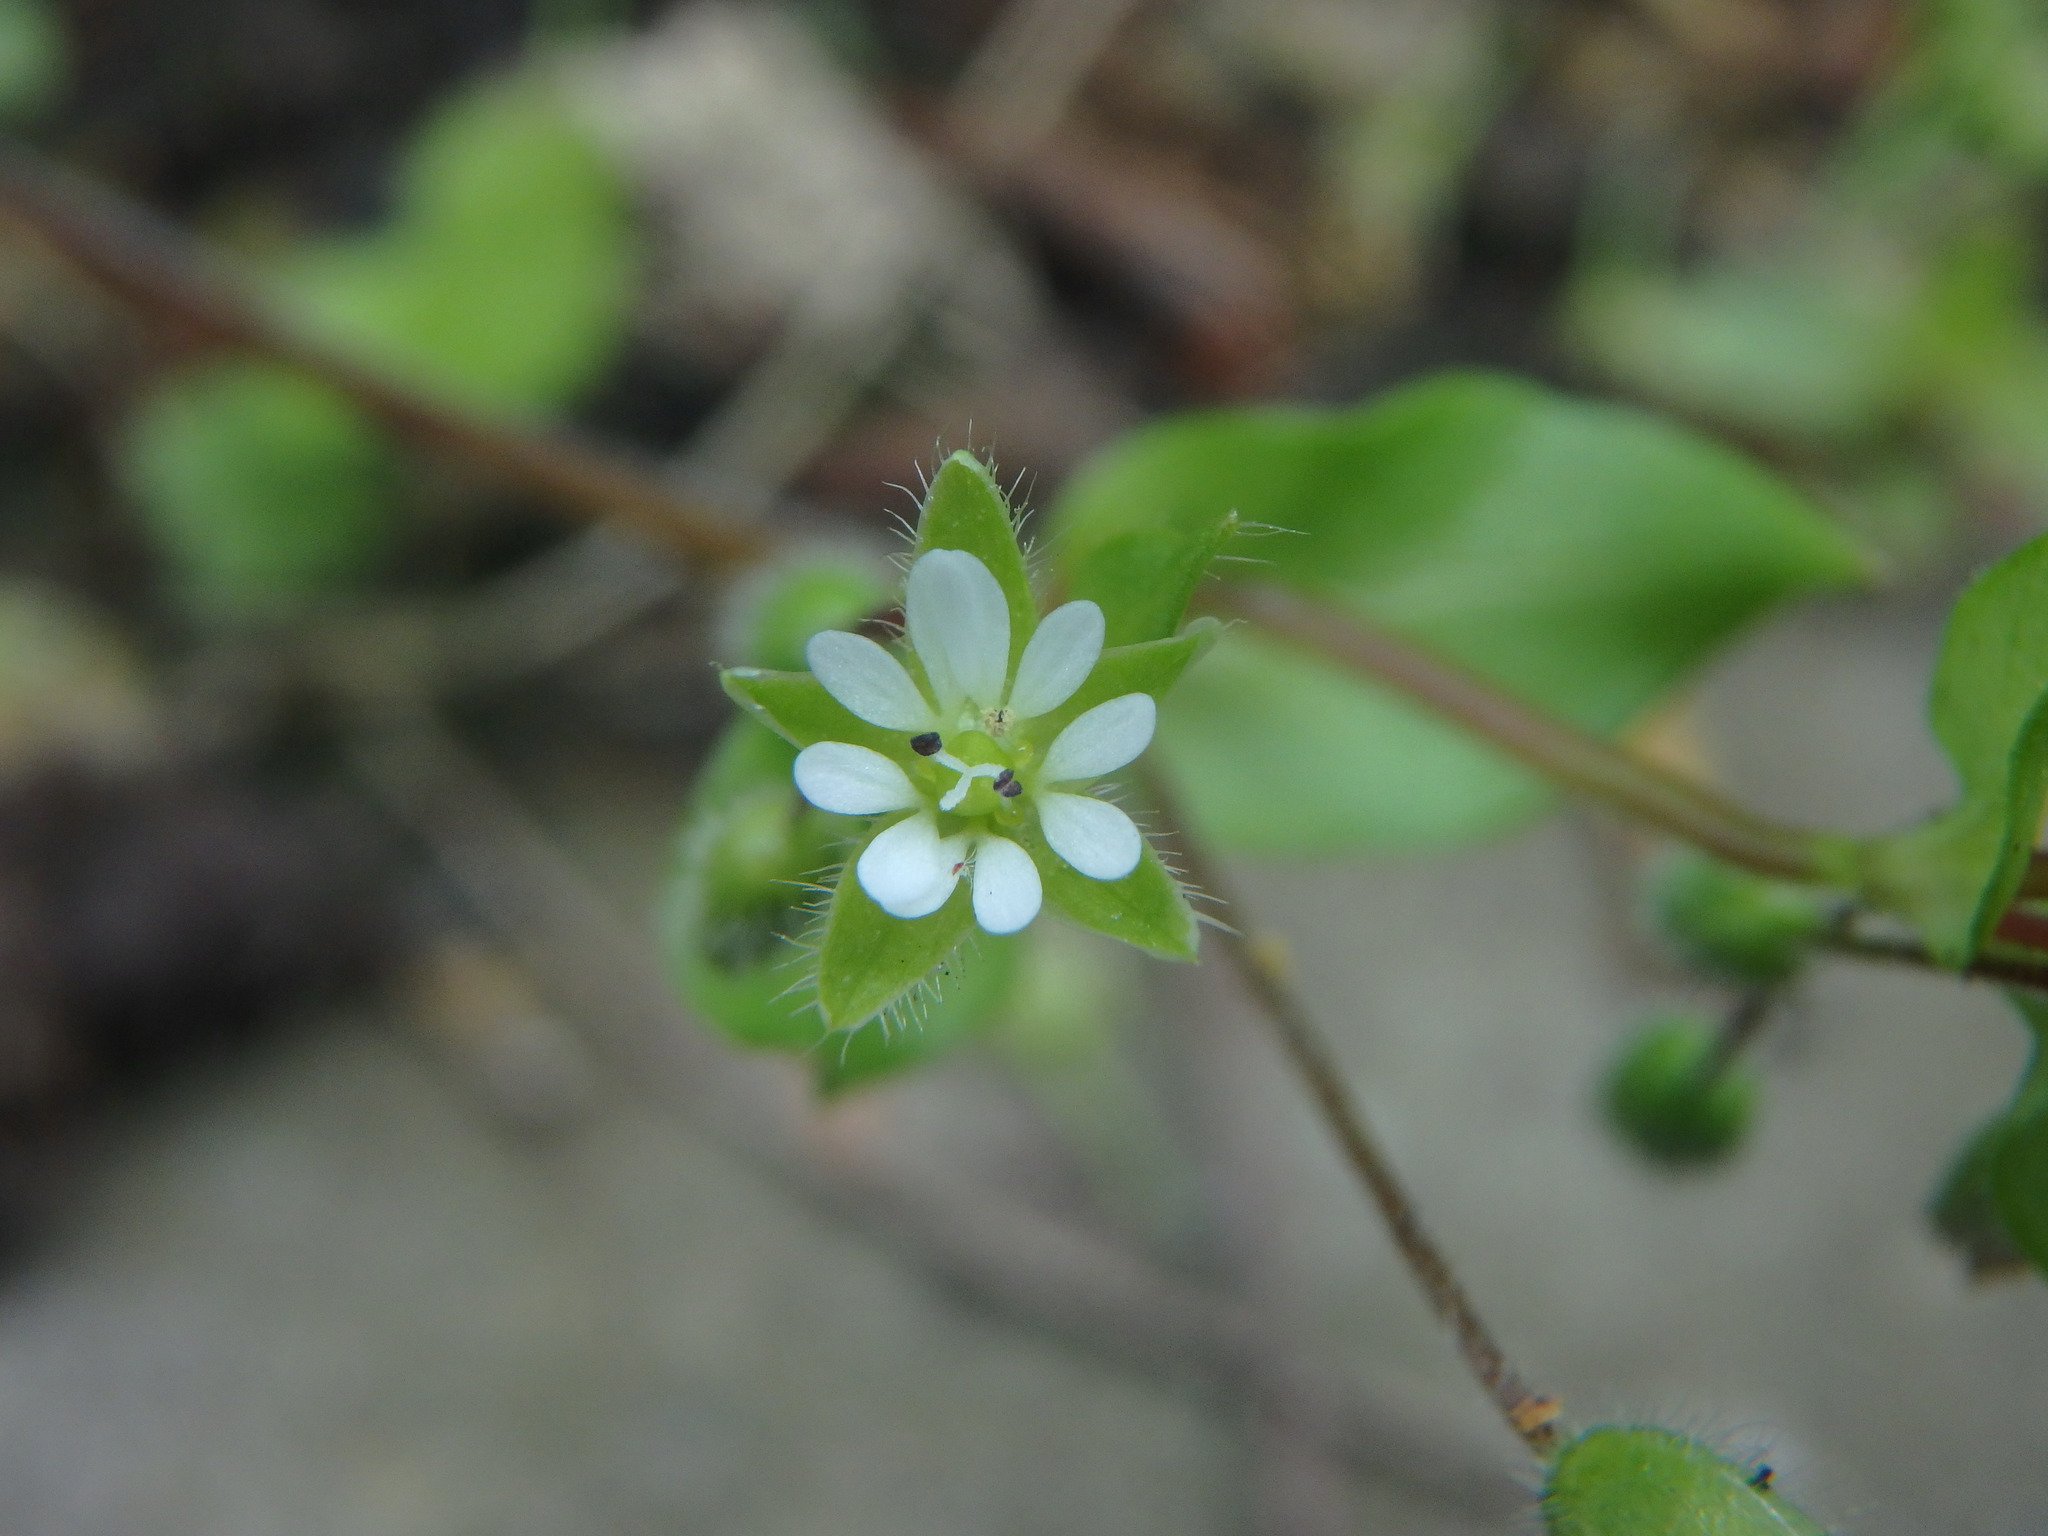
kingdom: Plantae
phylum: Tracheophyta
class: Magnoliopsida
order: Caryophyllales
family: Caryophyllaceae
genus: Stellaria
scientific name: Stellaria media
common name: Common chickweed
